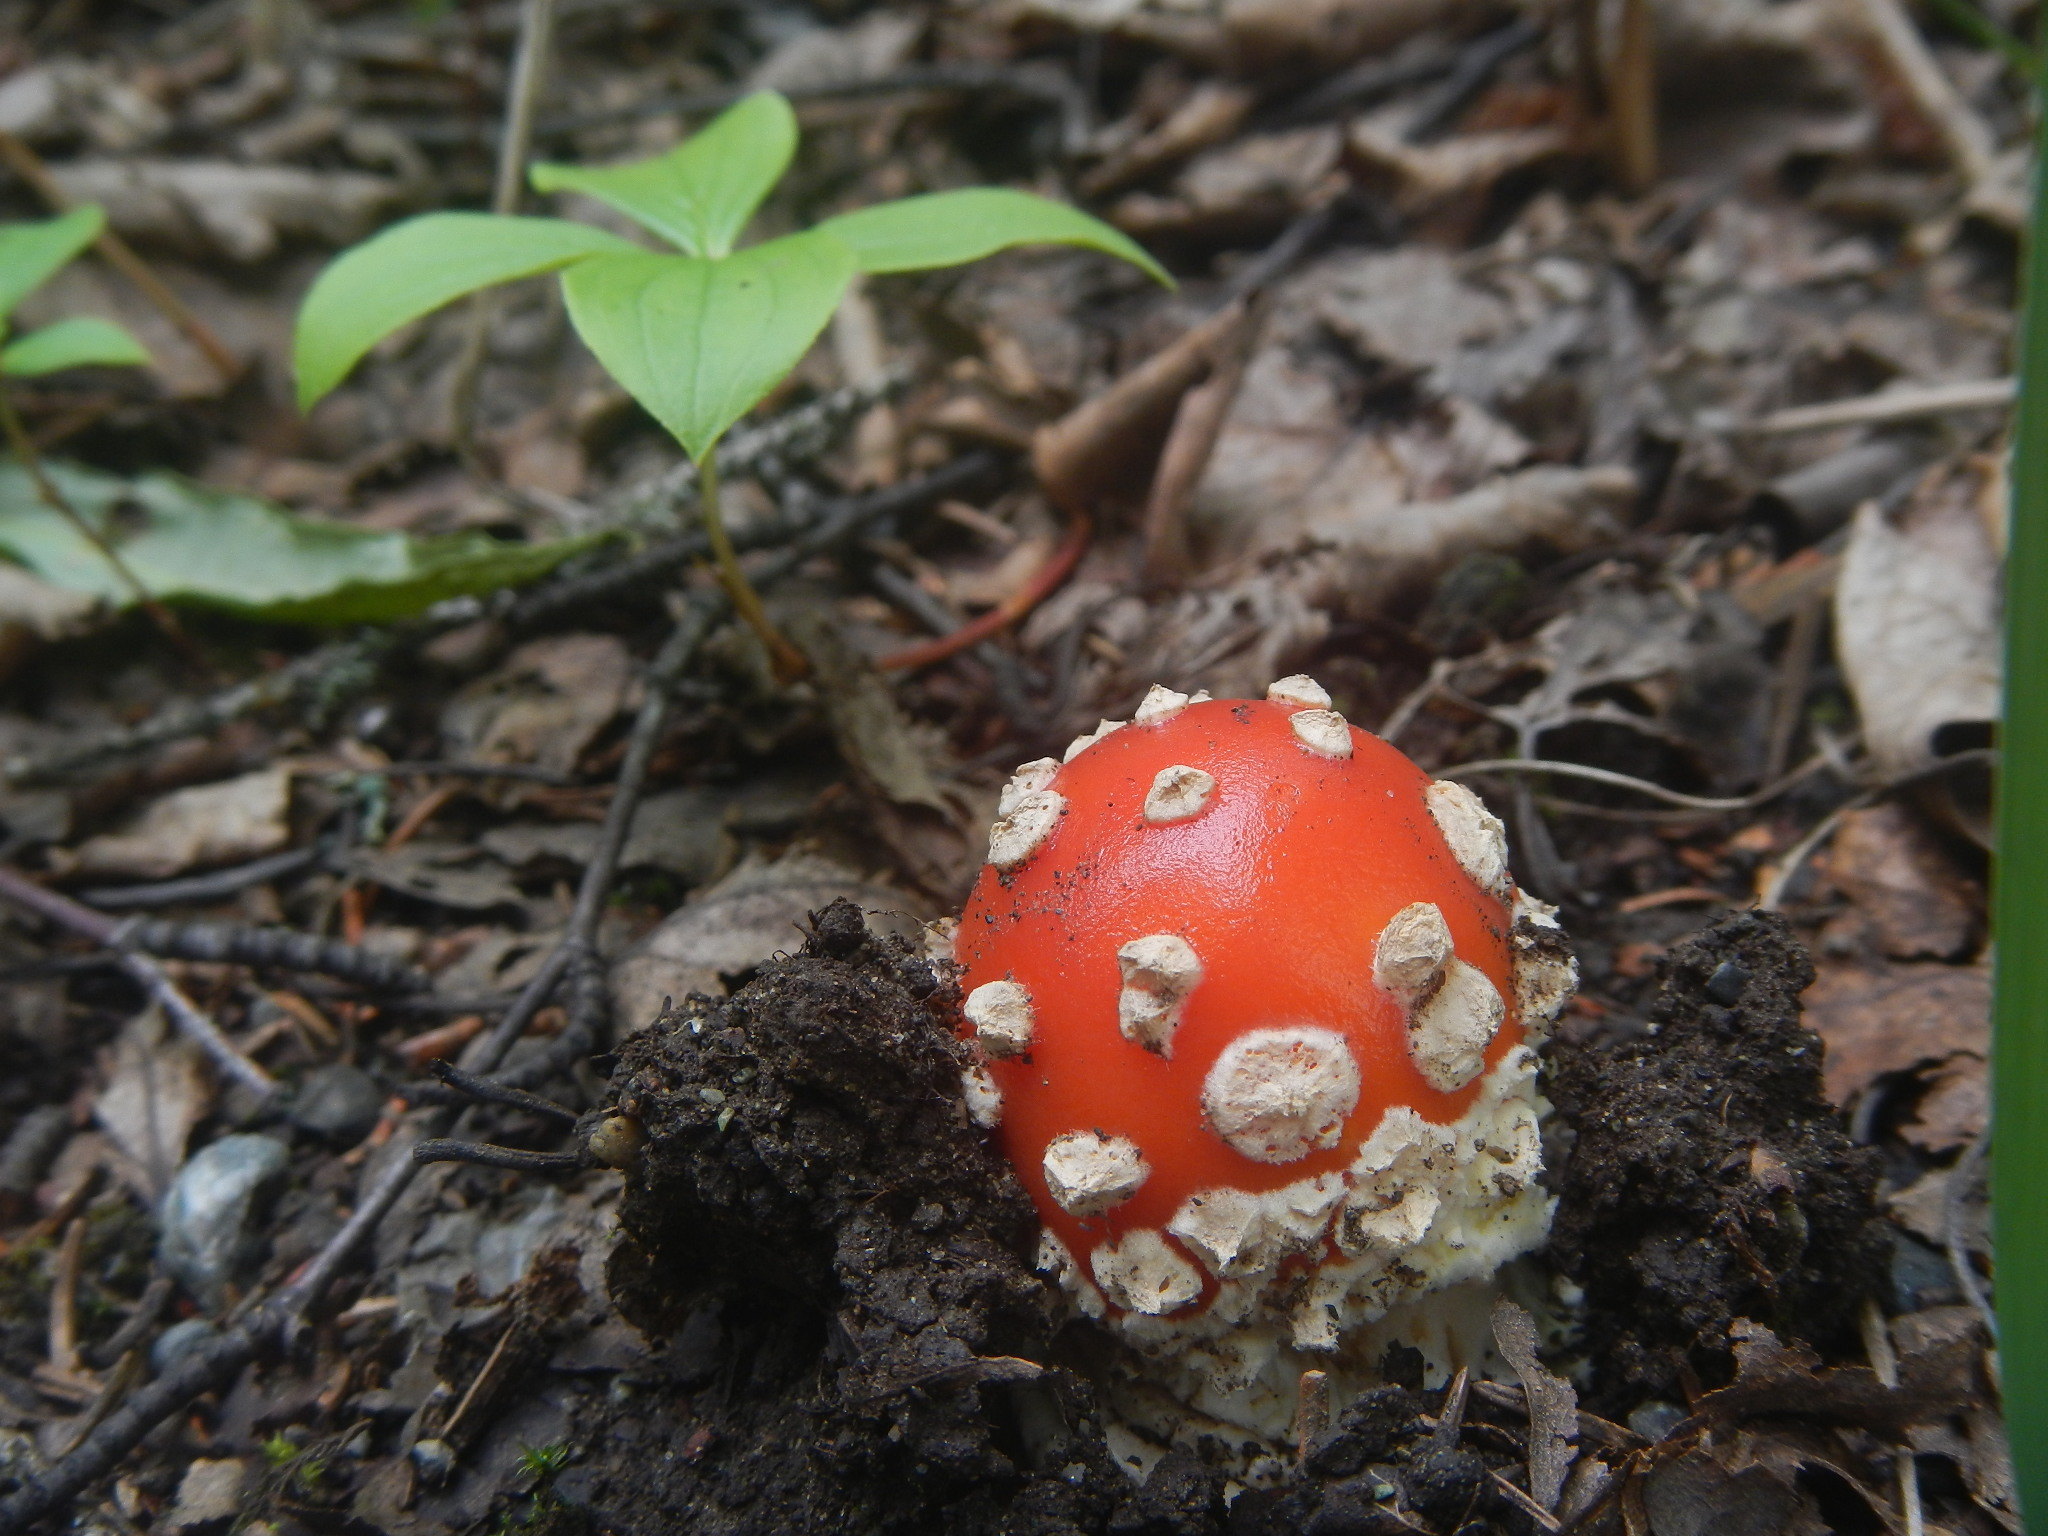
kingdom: Fungi
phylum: Basidiomycota
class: Agaricomycetes
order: Agaricales
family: Amanitaceae
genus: Amanita
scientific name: Amanita muscaria
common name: Fly agaric
